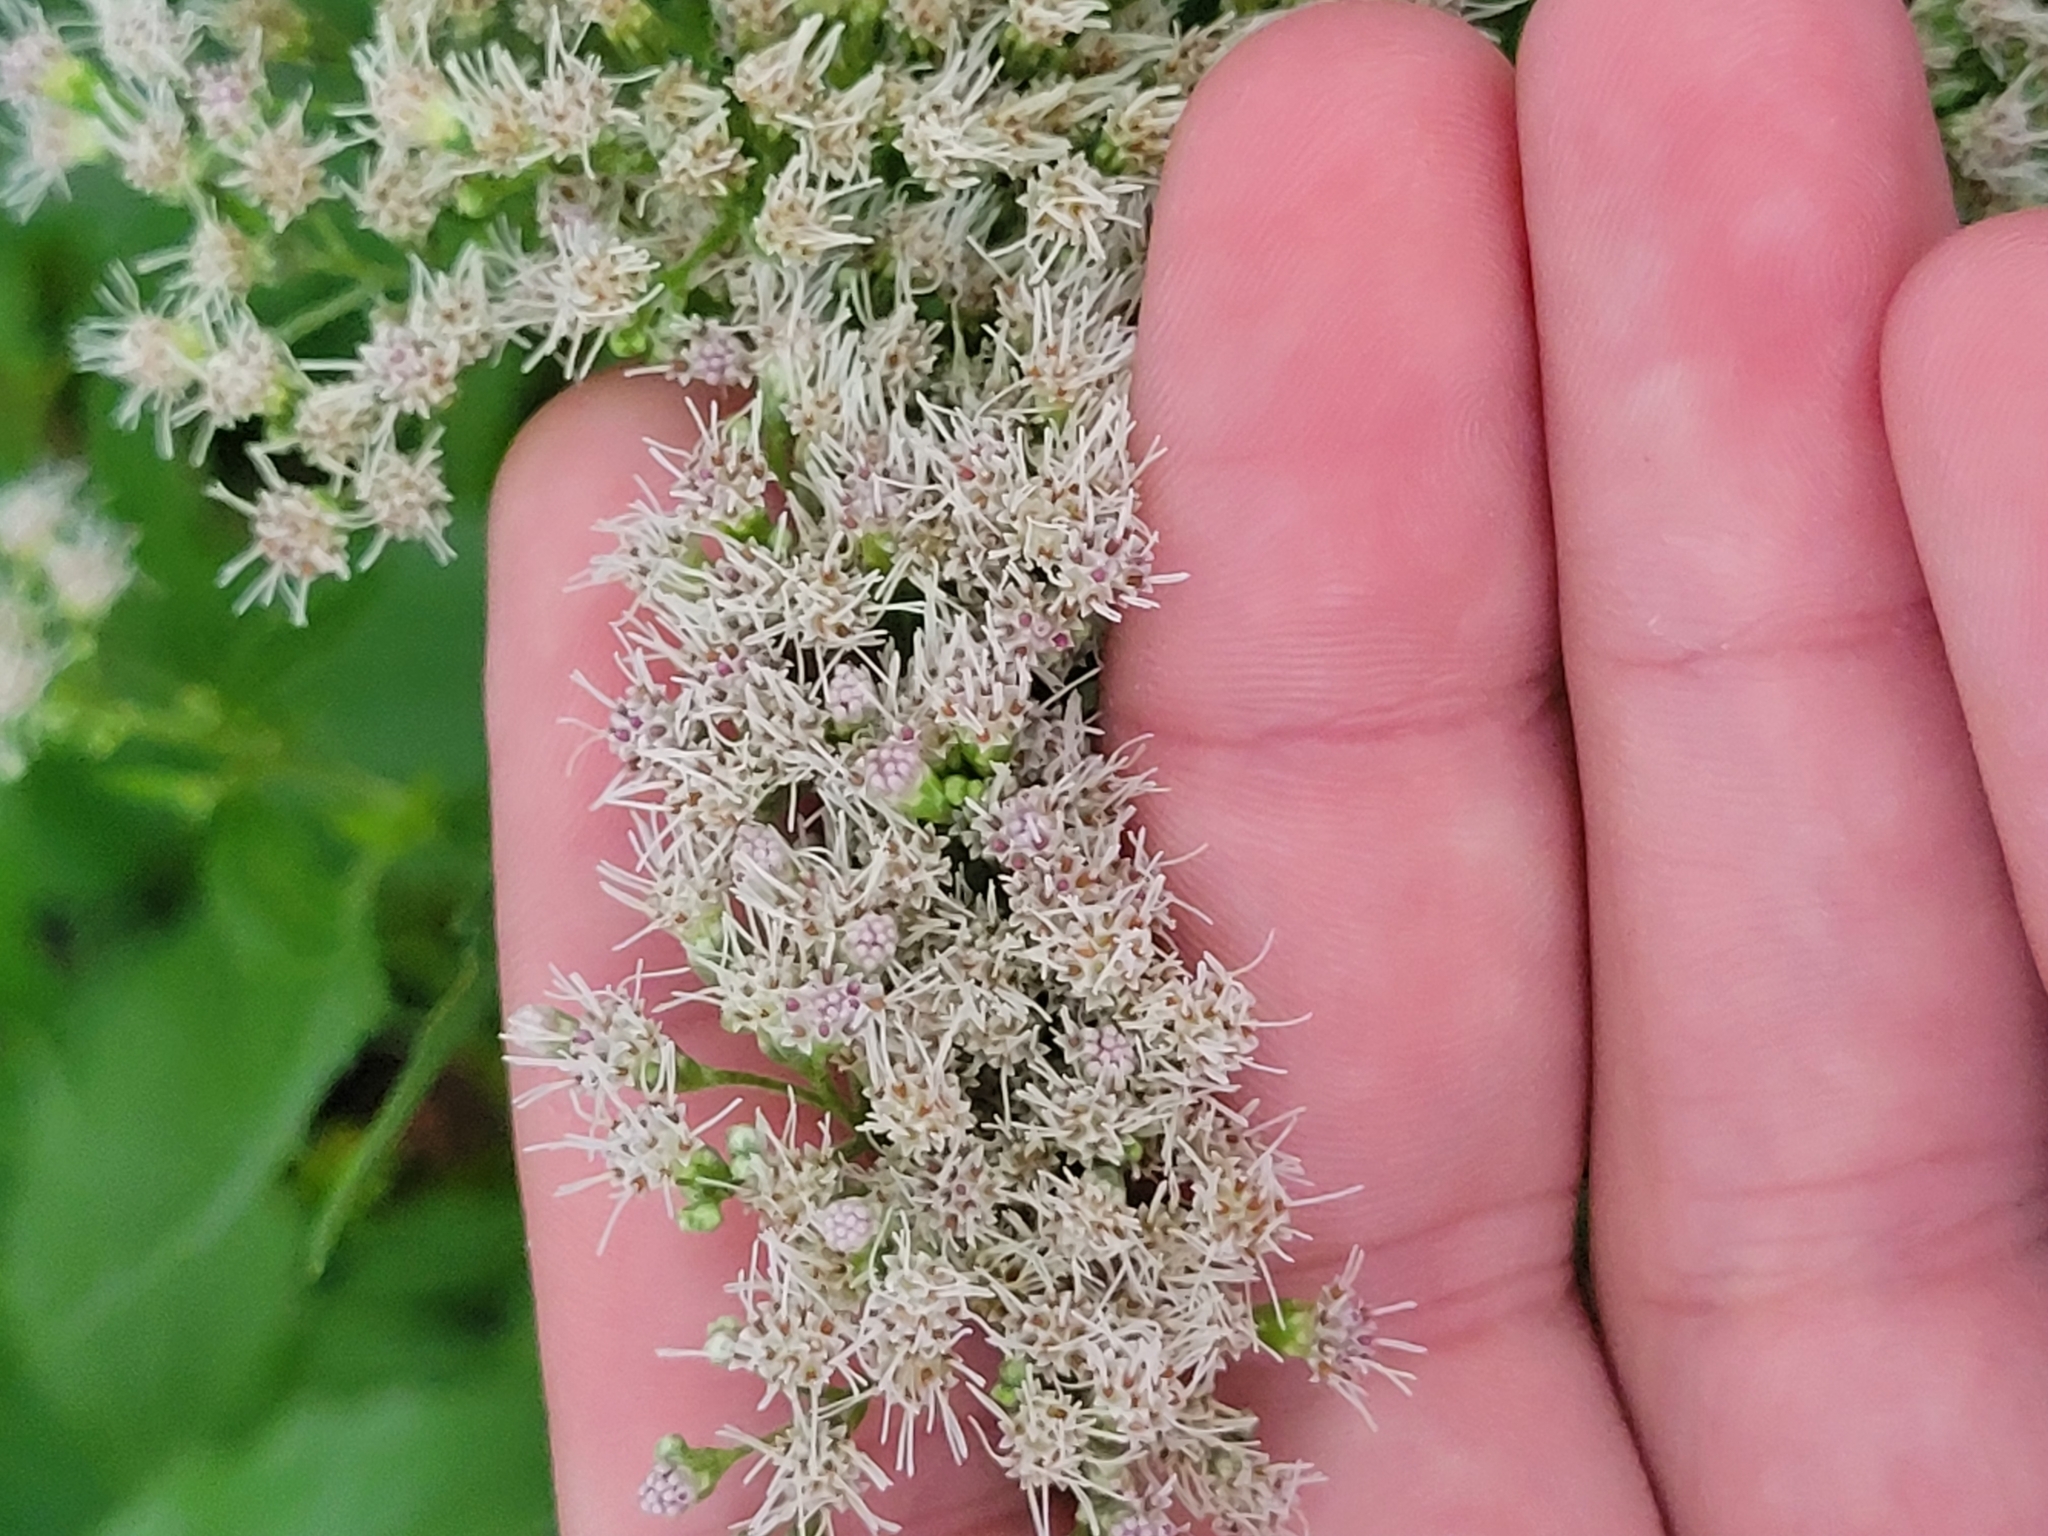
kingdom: Plantae
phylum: Tracheophyta
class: Magnoliopsida
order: Asterales
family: Asteraceae
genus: Eupatorium
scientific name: Eupatorium serotinum
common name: Late boneset
